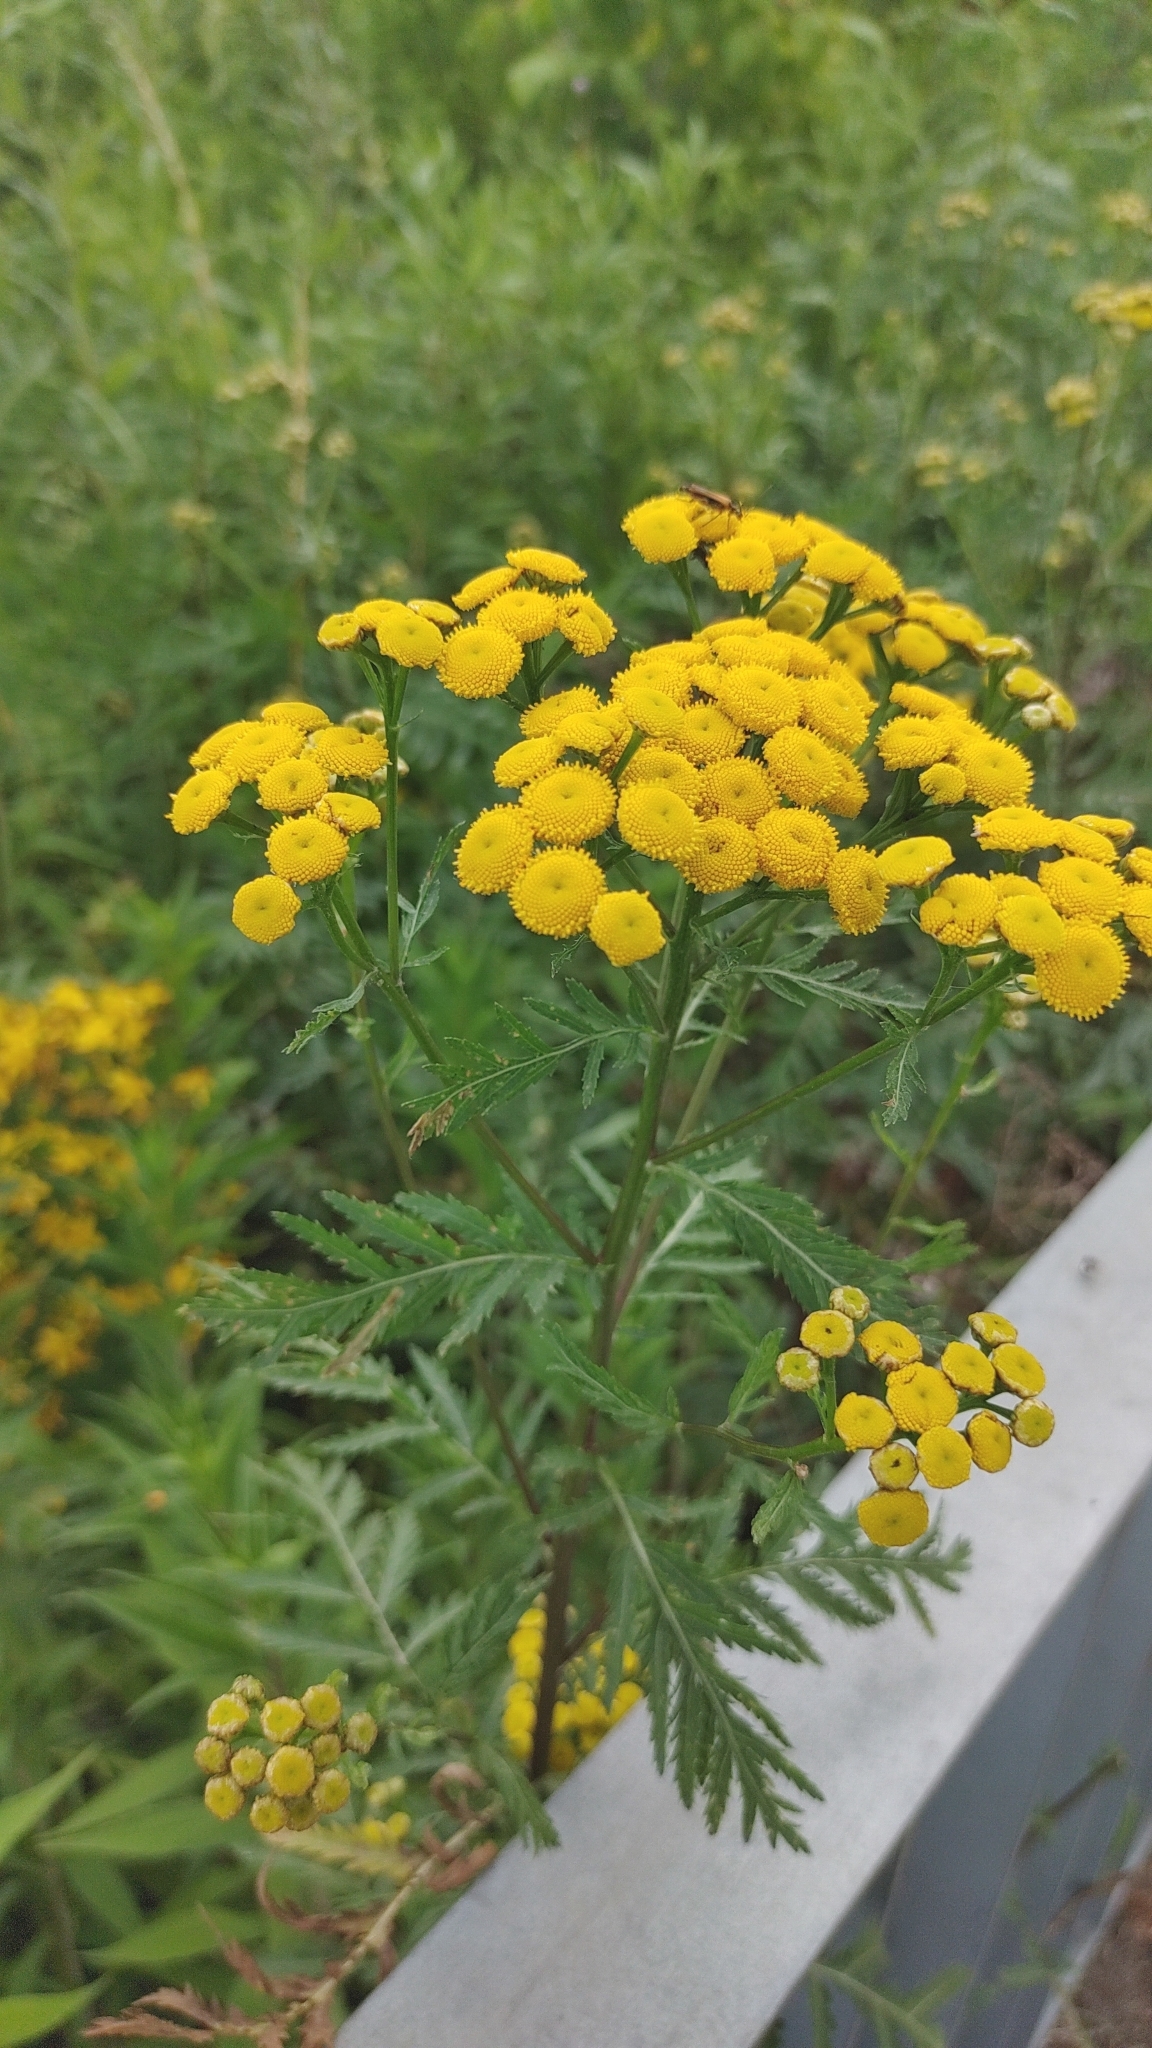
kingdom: Plantae
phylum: Tracheophyta
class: Magnoliopsida
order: Asterales
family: Asteraceae
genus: Tanacetum
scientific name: Tanacetum vulgare
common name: Common tansy
